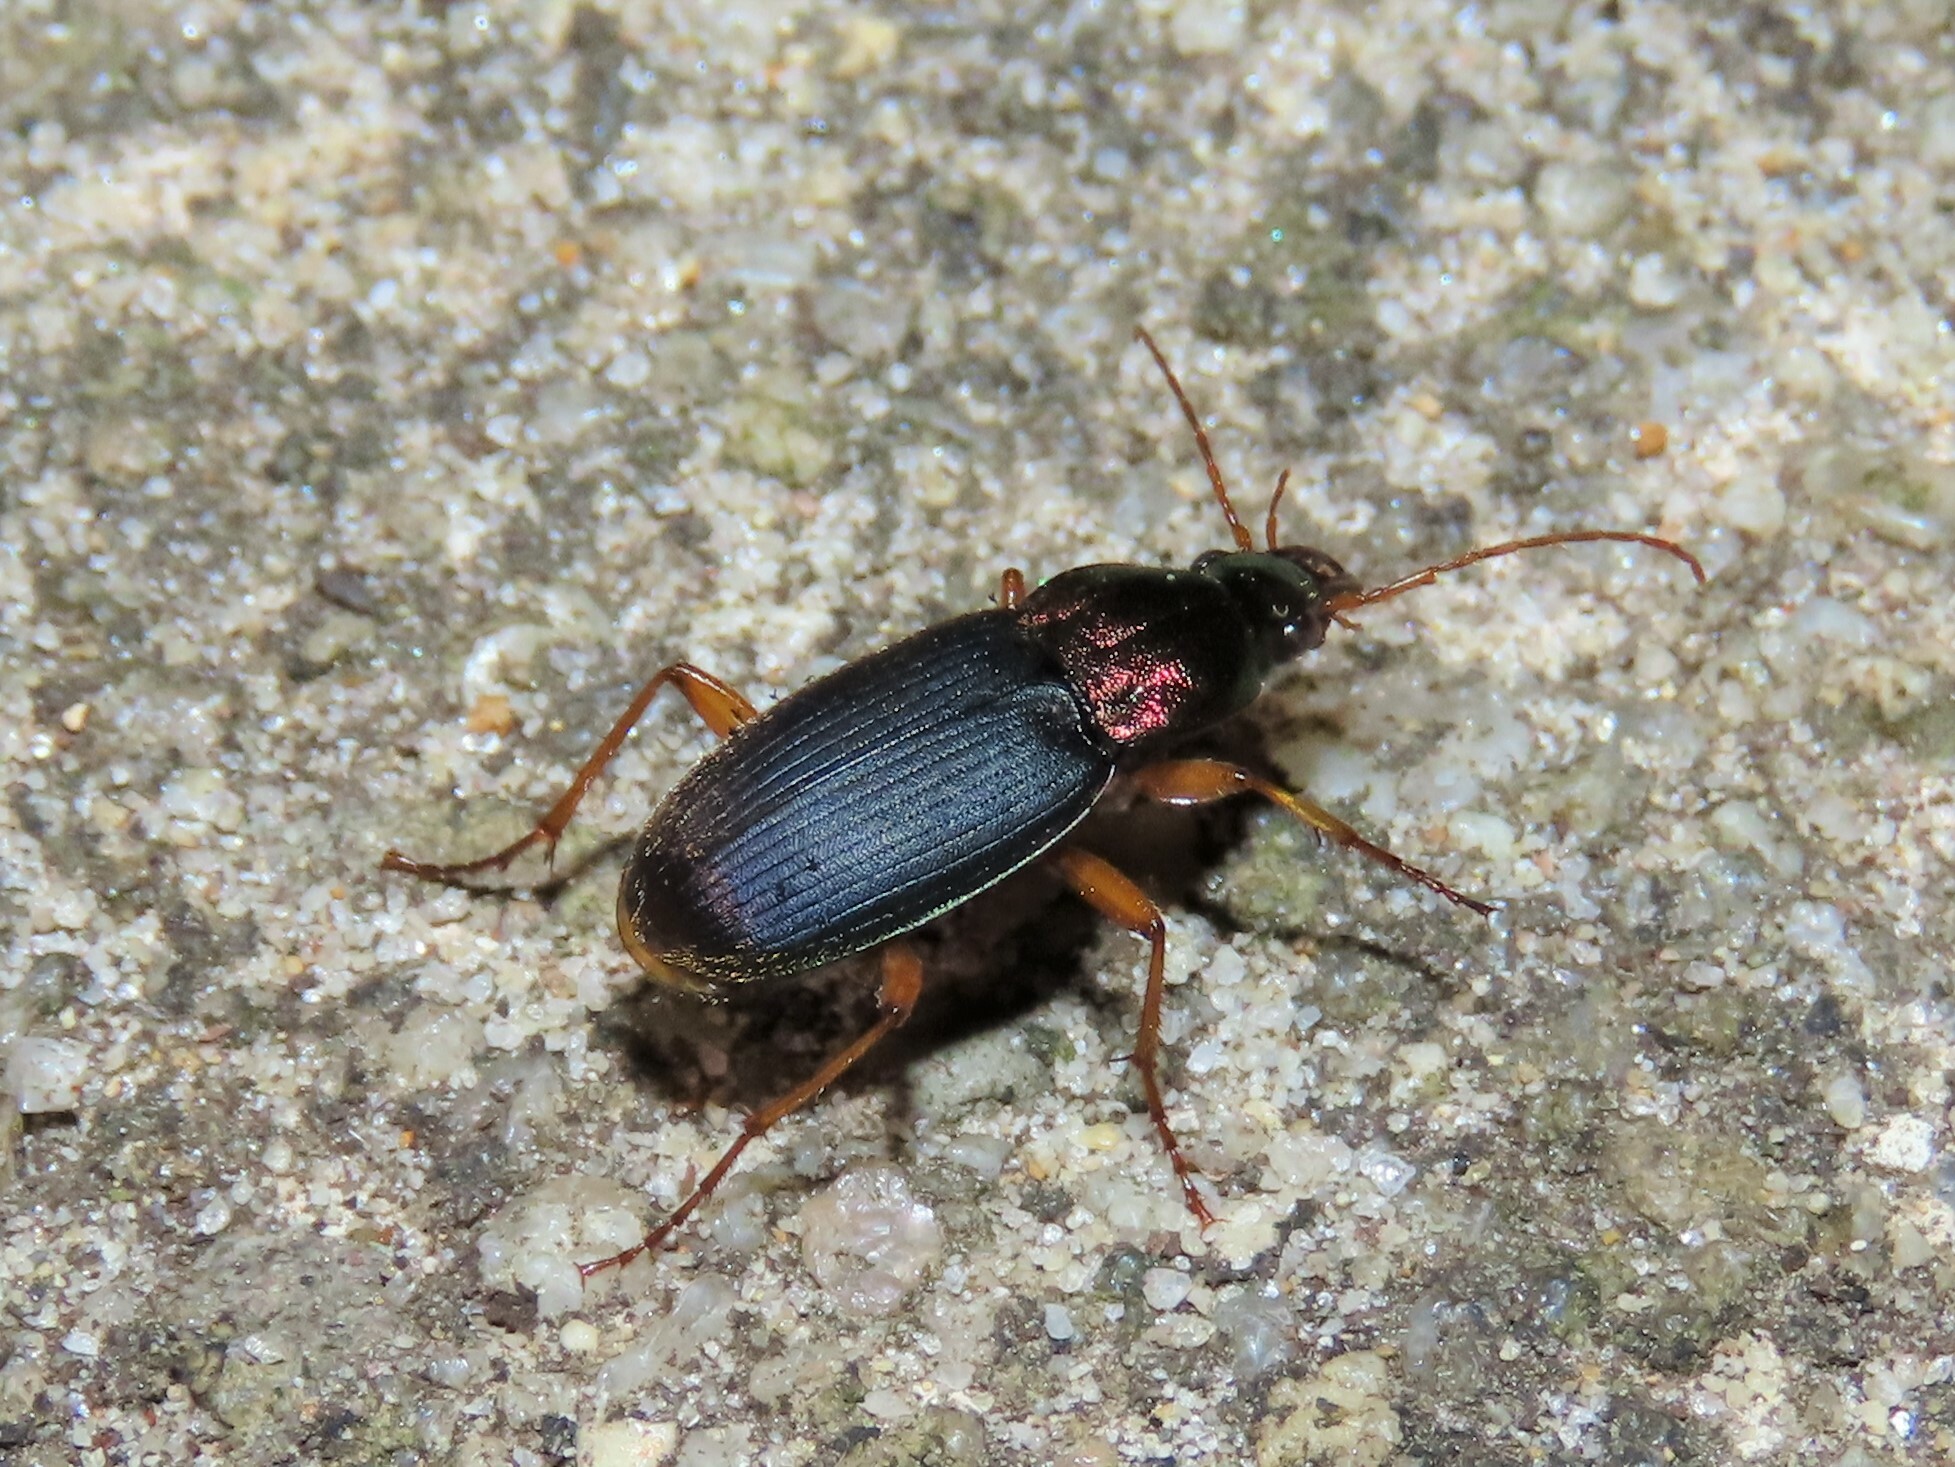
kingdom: Animalia
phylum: Arthropoda
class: Insecta
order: Coleoptera
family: Carabidae
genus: Chlaenius
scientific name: Chlaenius emarginatus
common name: Emarginate chlaenius
